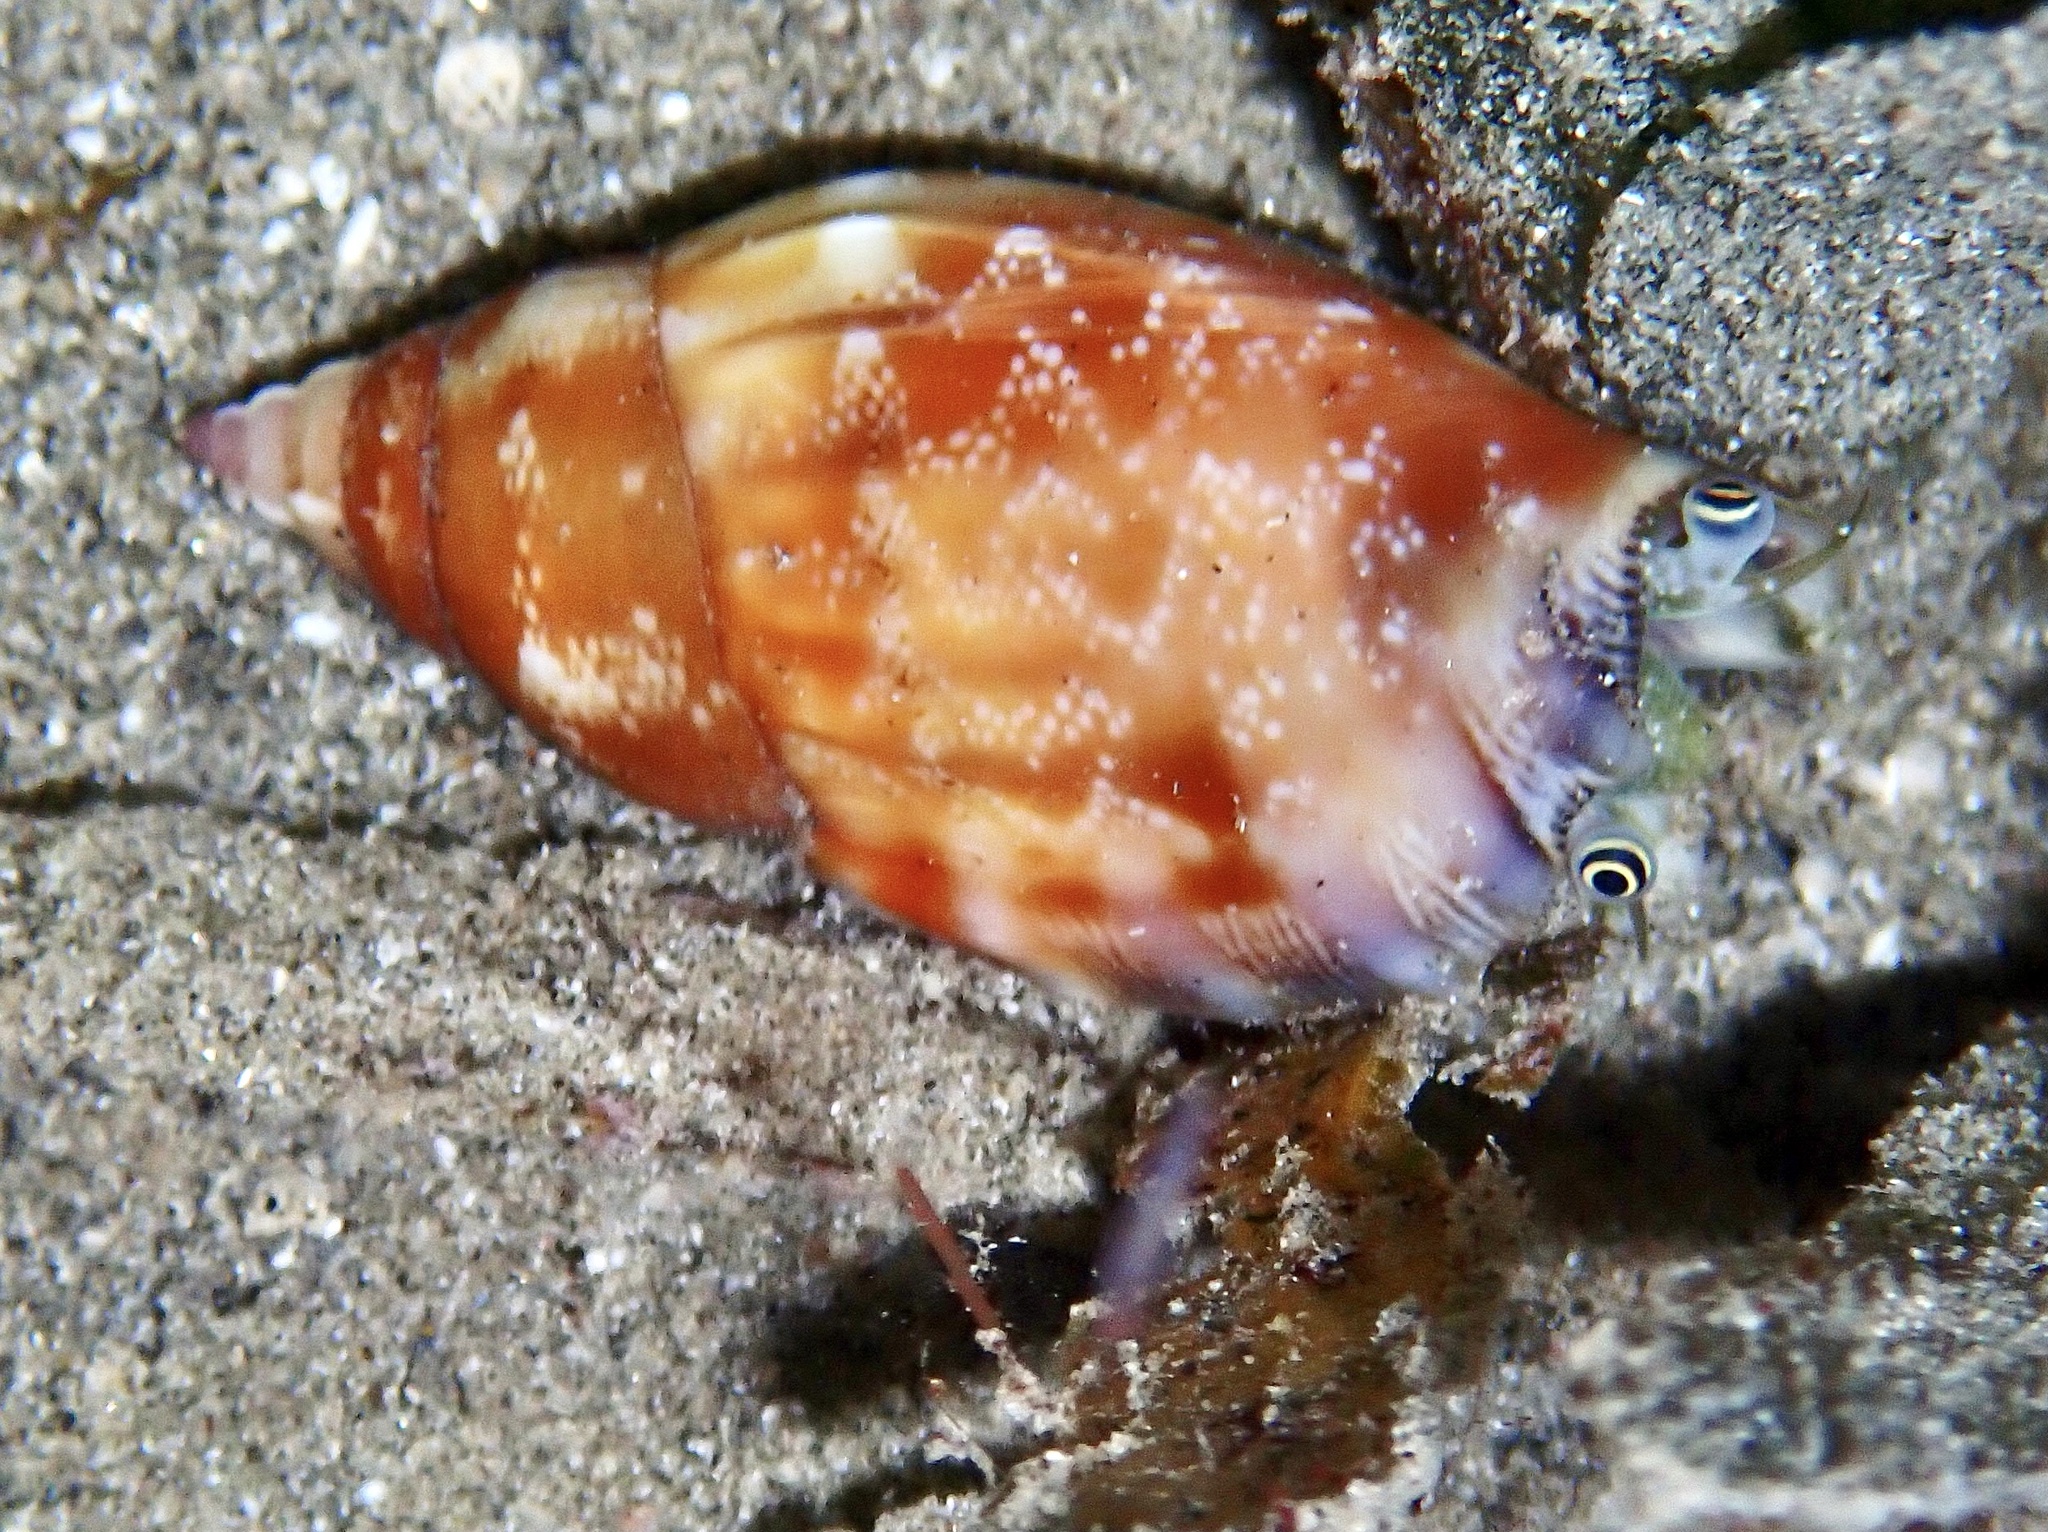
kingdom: Animalia
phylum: Mollusca
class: Gastropoda
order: Littorinimorpha
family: Strombidae
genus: Tridentarius
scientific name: Tridentarius dentatus
